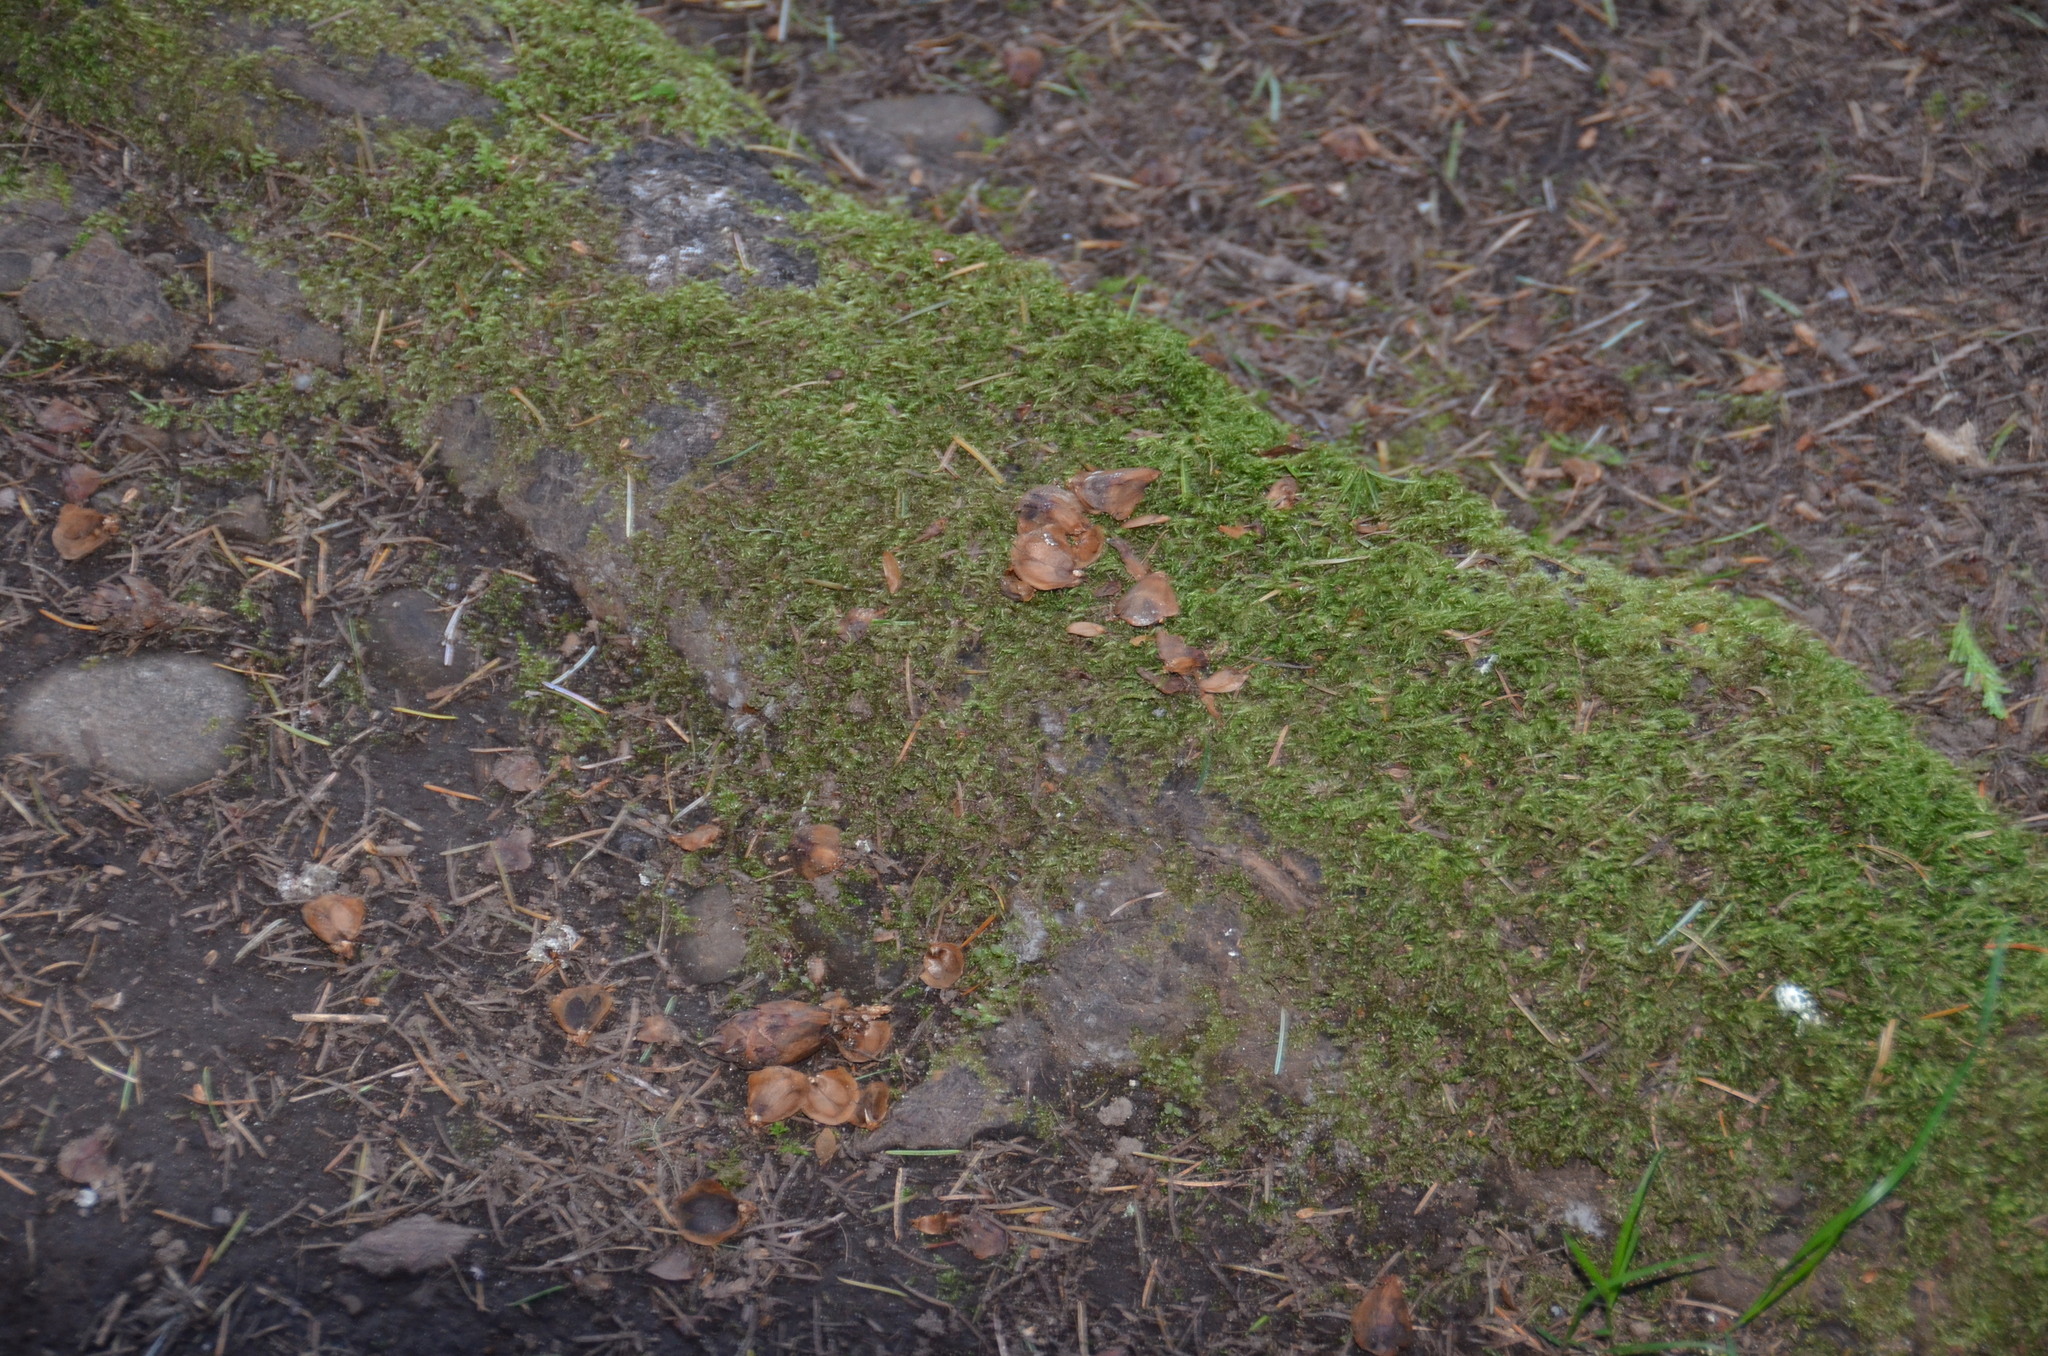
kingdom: Animalia
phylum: Chordata
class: Mammalia
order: Rodentia
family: Sciuridae
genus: Tamiasciurus
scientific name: Tamiasciurus hudsonicus
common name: Red squirrel
